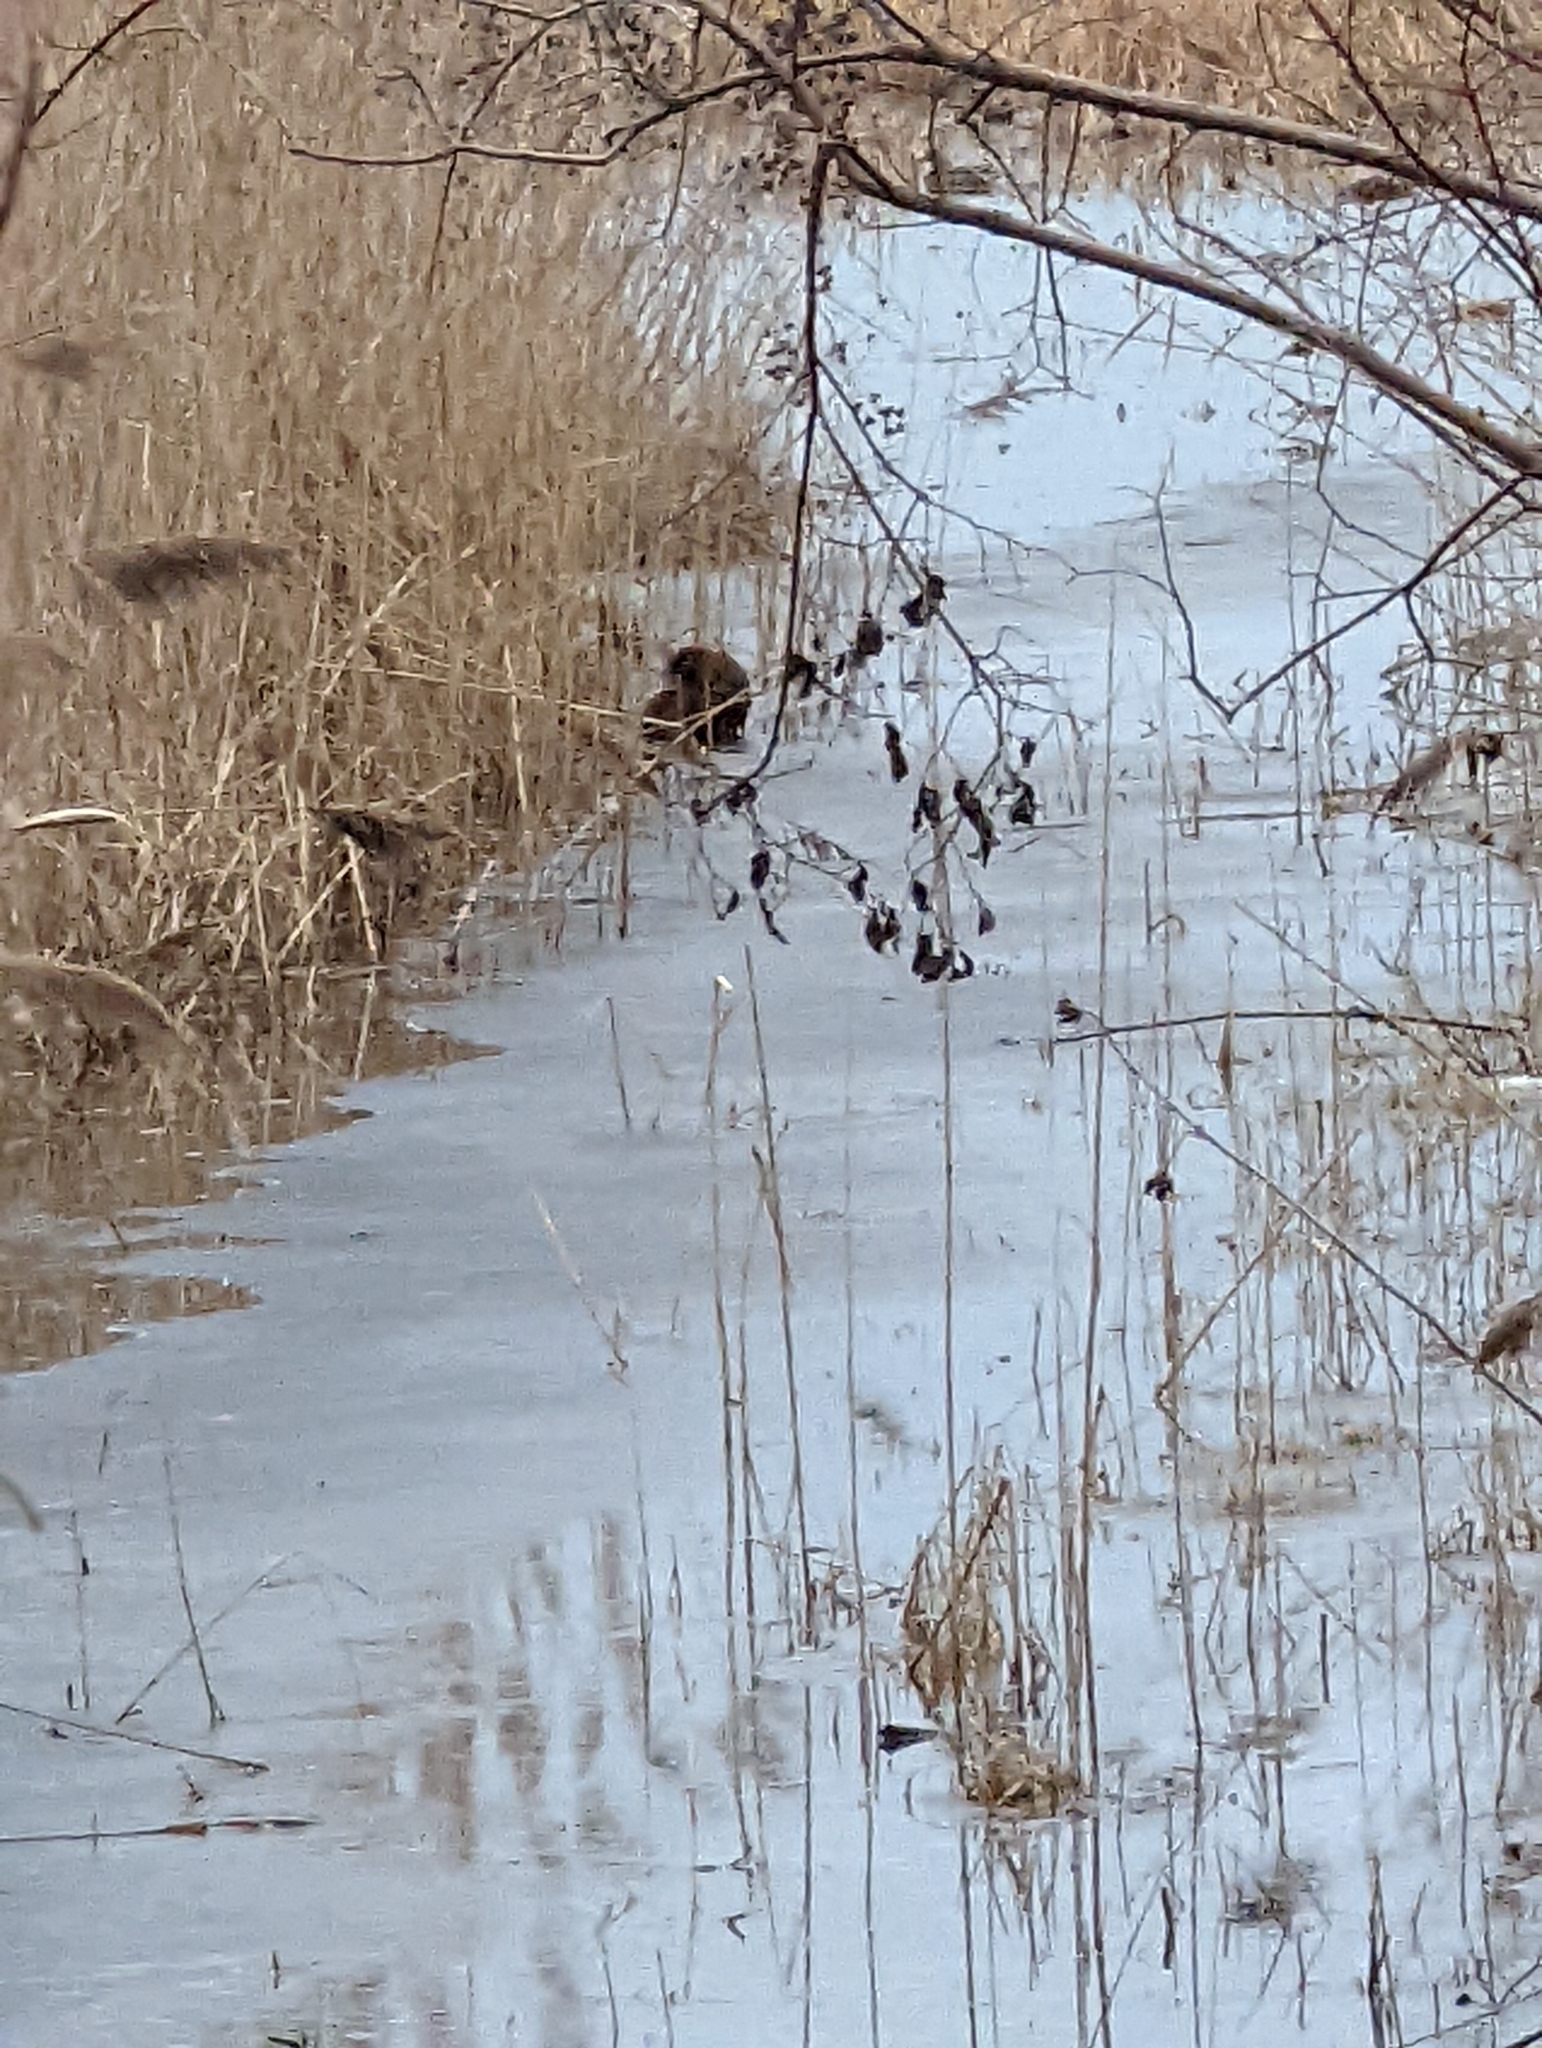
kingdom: Animalia
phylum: Chordata
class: Mammalia
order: Rodentia
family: Cricetidae
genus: Ondatra
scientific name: Ondatra zibethicus
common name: Muskrat
